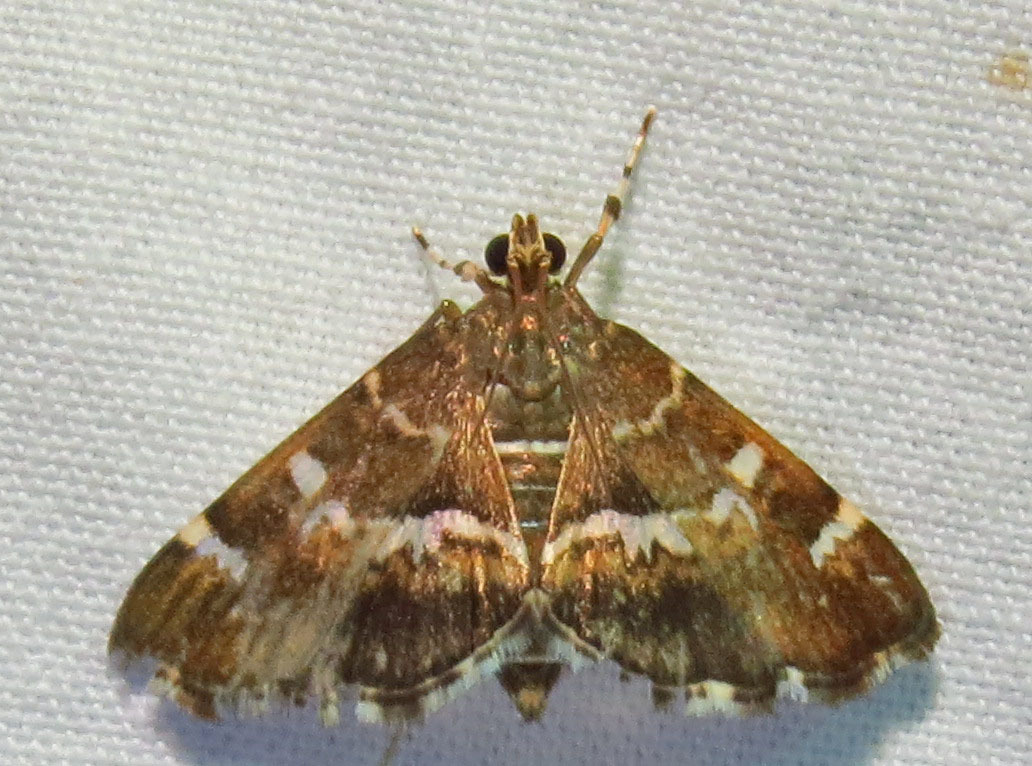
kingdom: Animalia
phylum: Arthropoda
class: Insecta
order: Lepidoptera
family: Crambidae
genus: Hymenia
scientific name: Hymenia perspectalis
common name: Spotted beet webworm
